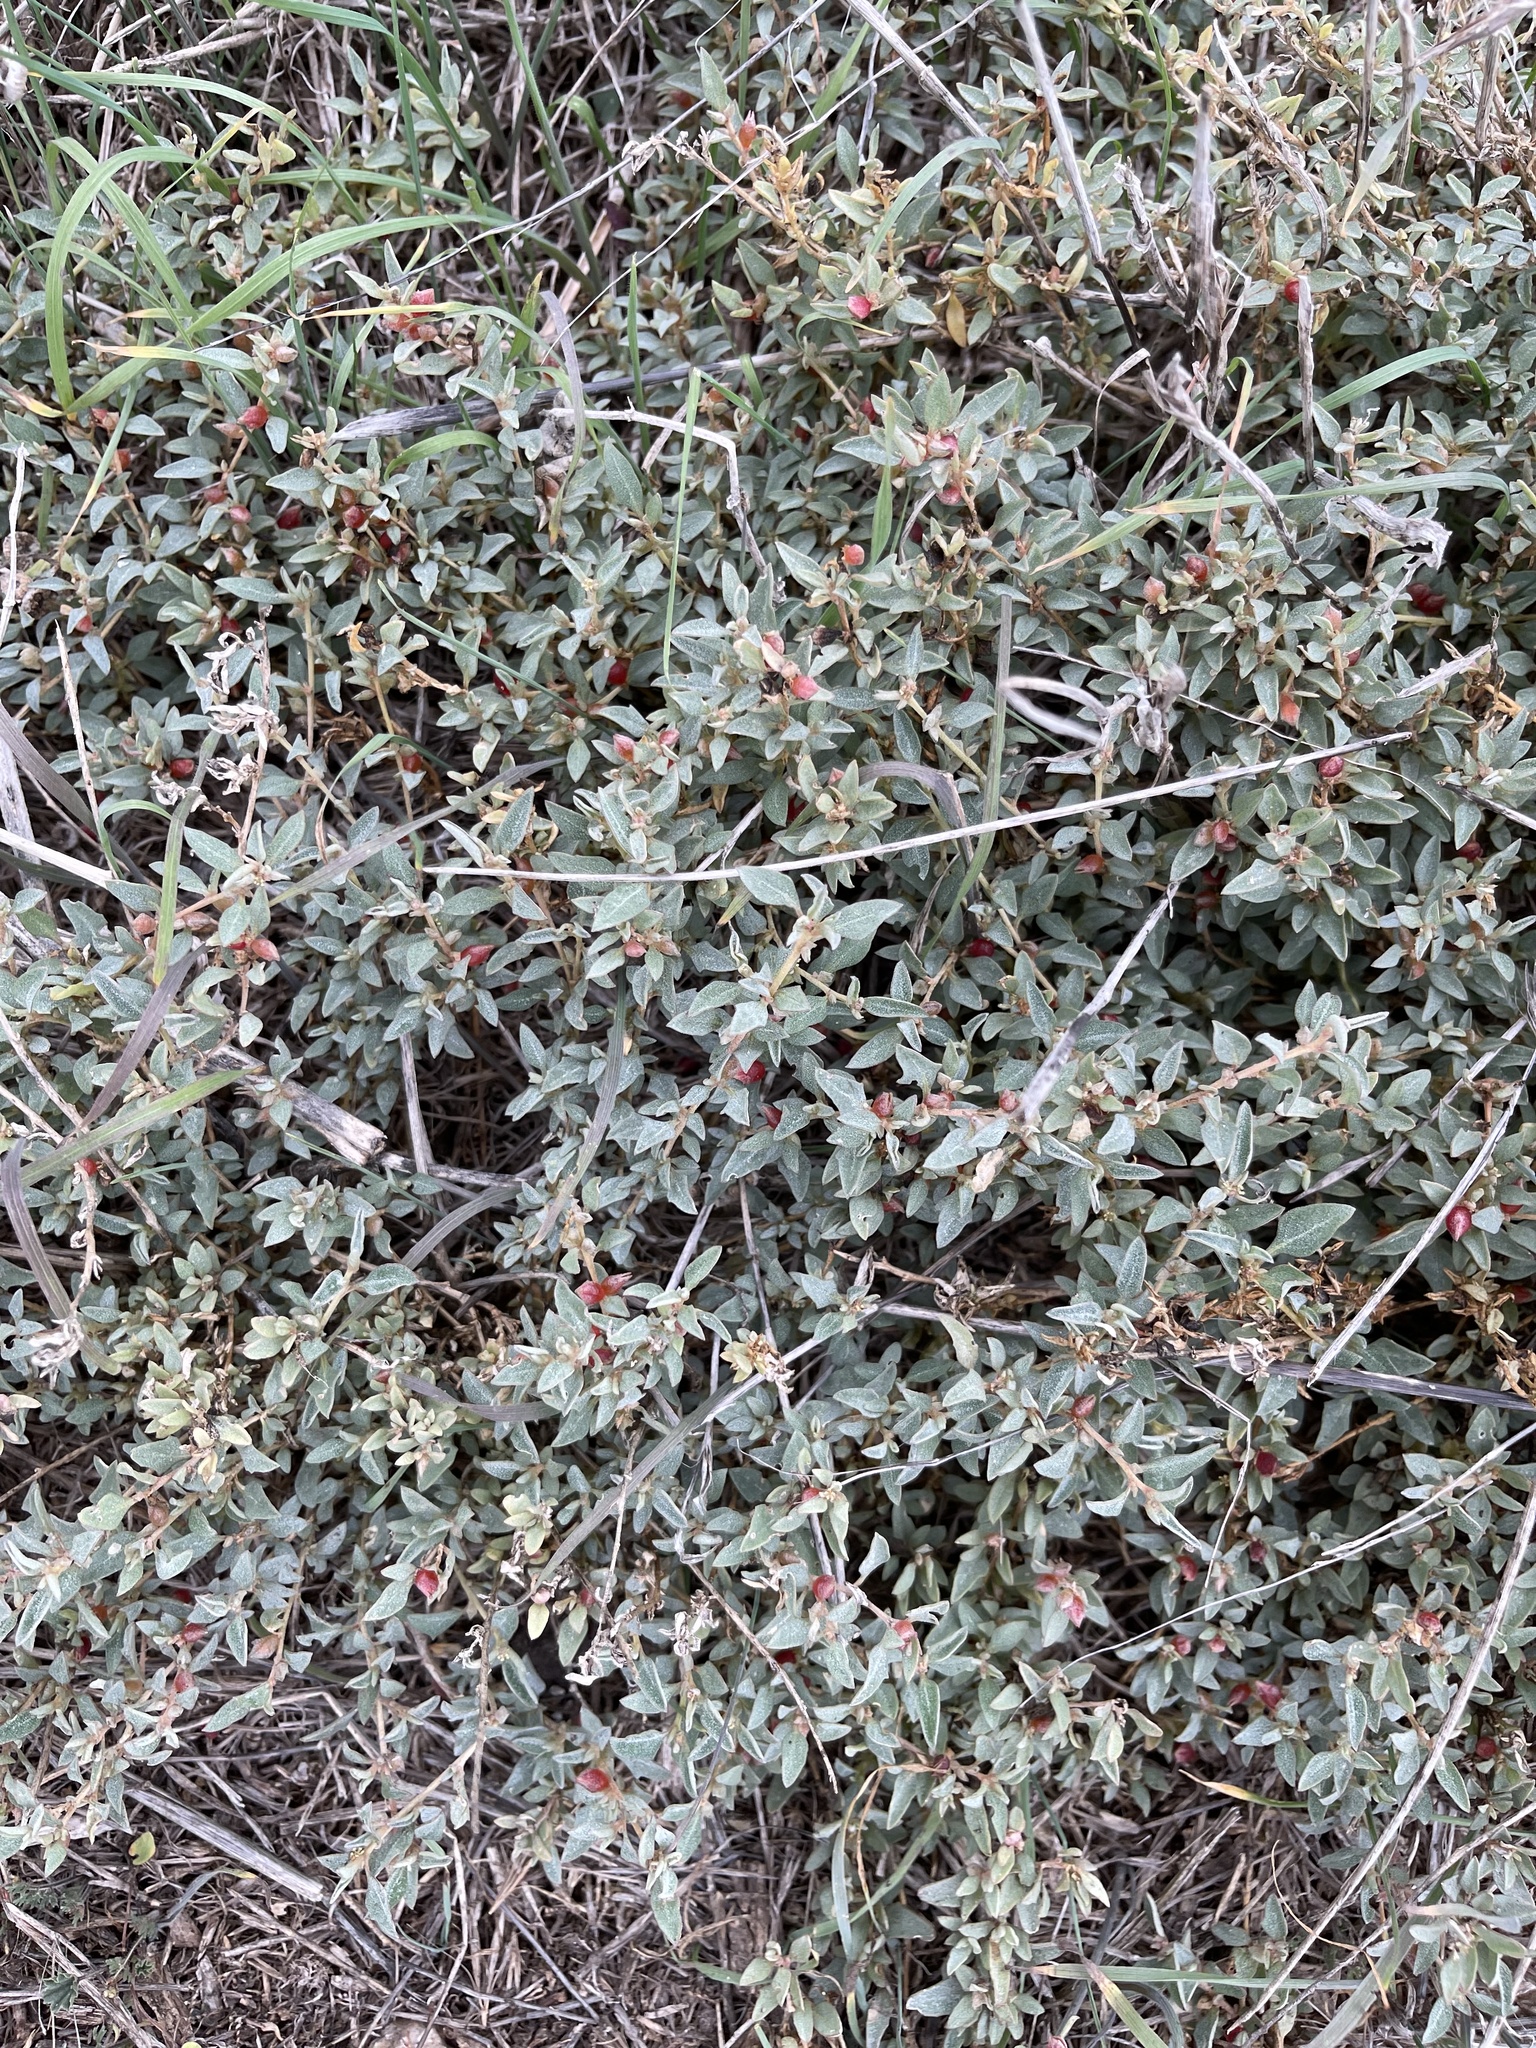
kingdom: Plantae
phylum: Tracheophyta
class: Magnoliopsida
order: Caryophyllales
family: Amaranthaceae
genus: Atriplex
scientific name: Atriplex semibaccata
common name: Australian saltbush
